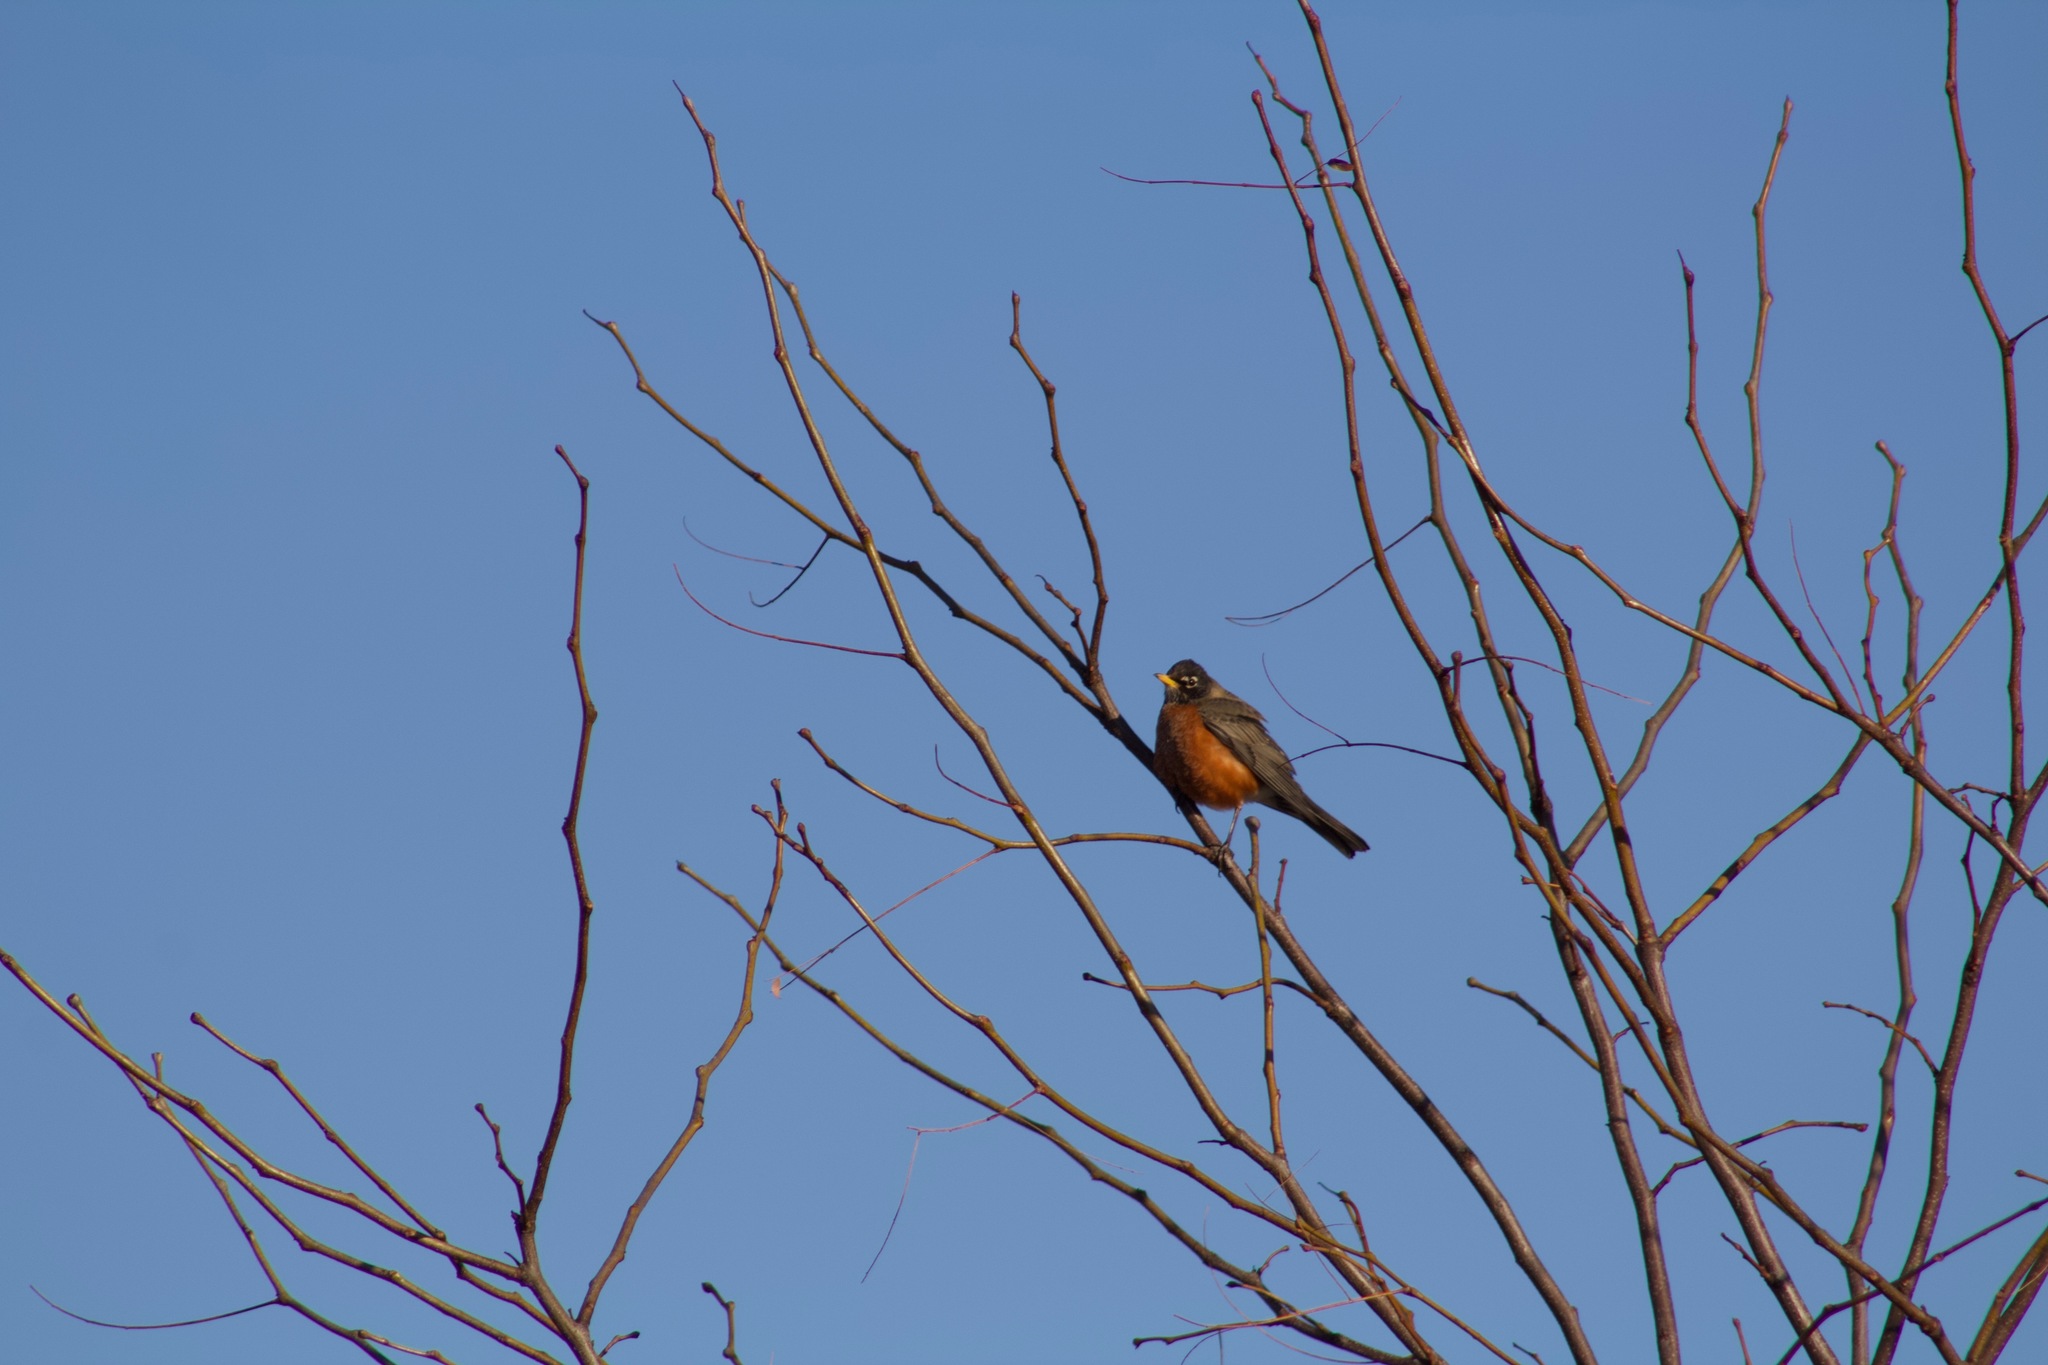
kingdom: Animalia
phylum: Chordata
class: Aves
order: Passeriformes
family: Turdidae
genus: Turdus
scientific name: Turdus migratorius
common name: American robin
